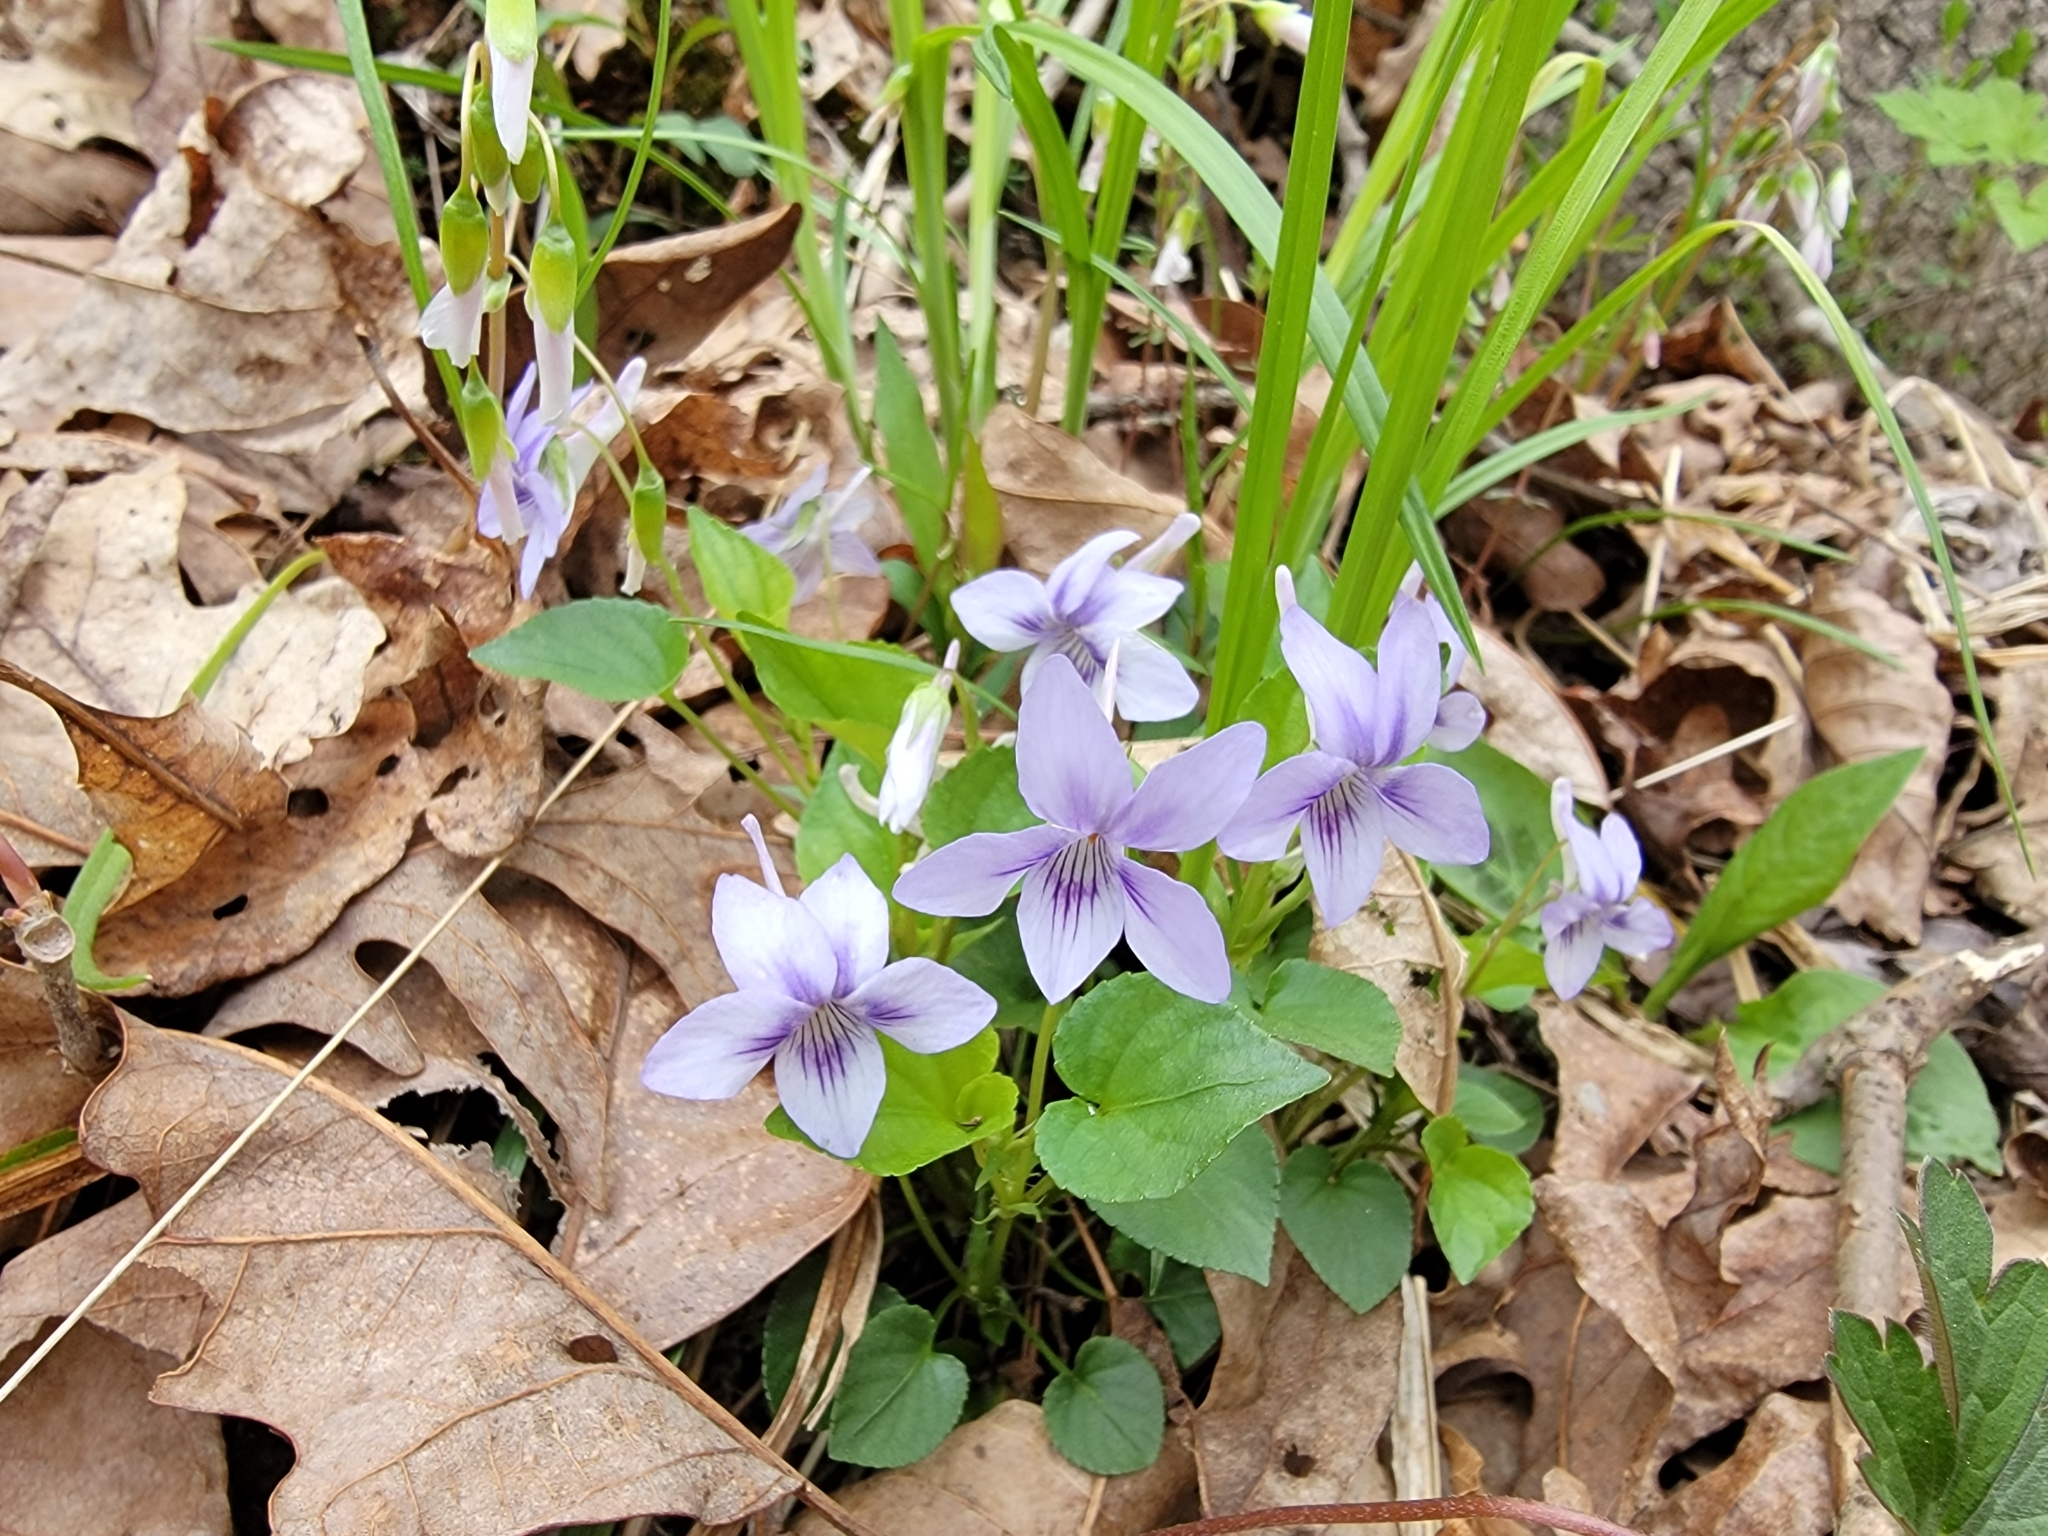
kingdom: Plantae
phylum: Tracheophyta
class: Magnoliopsida
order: Malpighiales
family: Violaceae
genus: Viola
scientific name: Viola rostrata
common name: Long-spur violet
